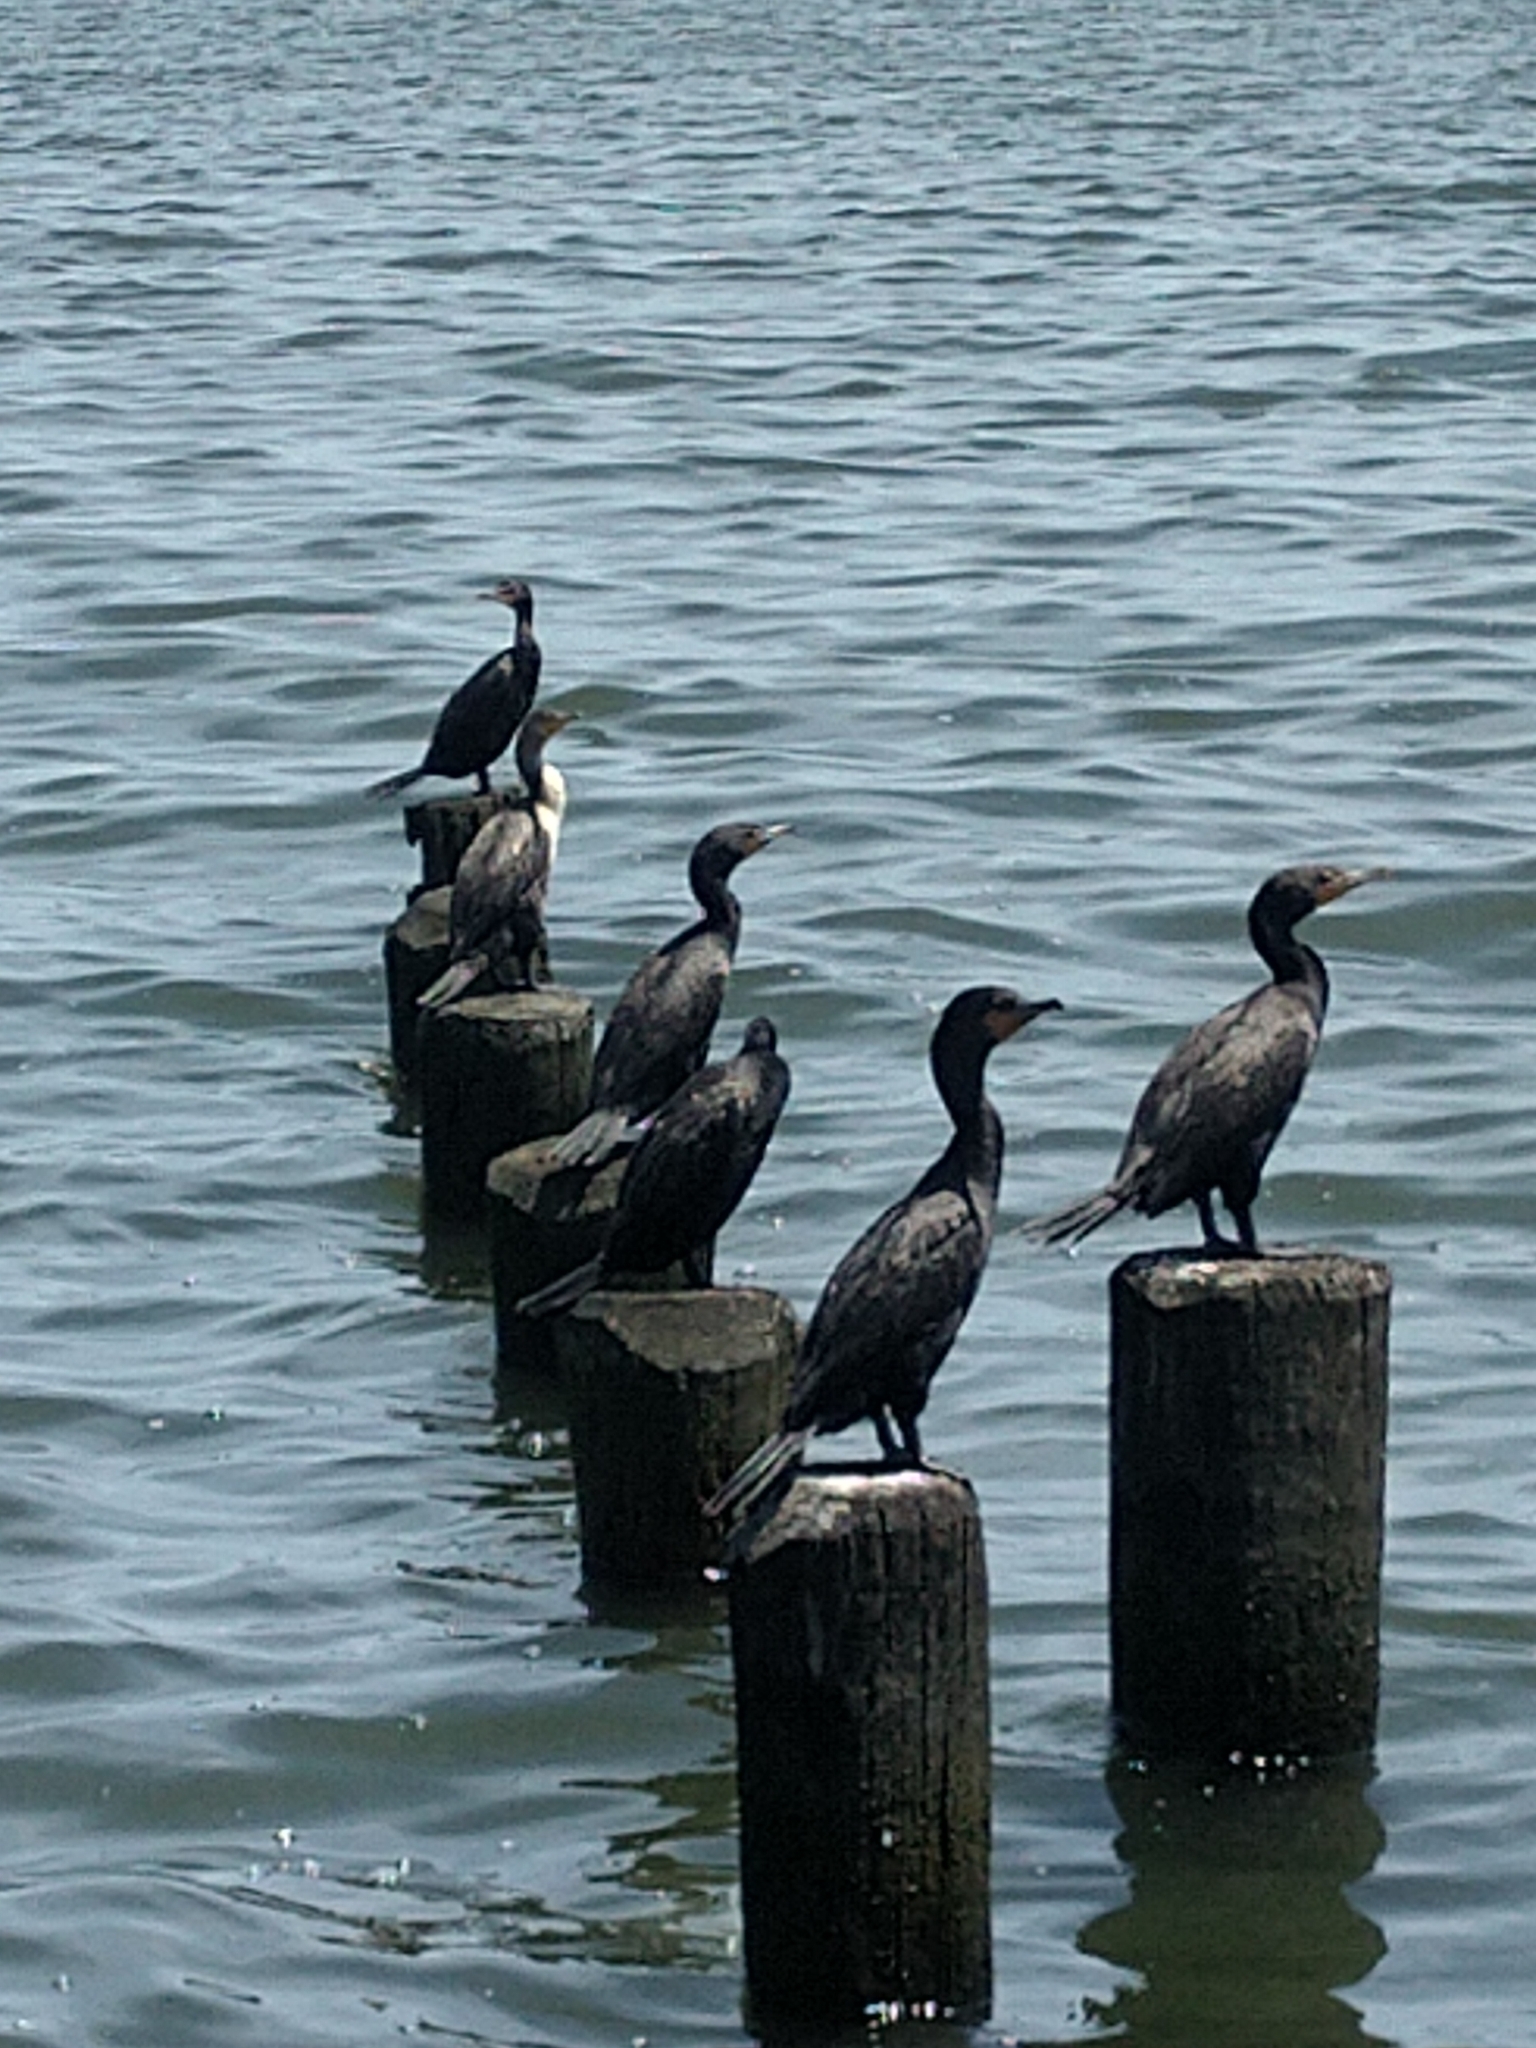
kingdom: Animalia
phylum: Chordata
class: Aves
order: Suliformes
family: Phalacrocoracidae
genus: Phalacrocorax
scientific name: Phalacrocorax auritus
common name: Double-crested cormorant
